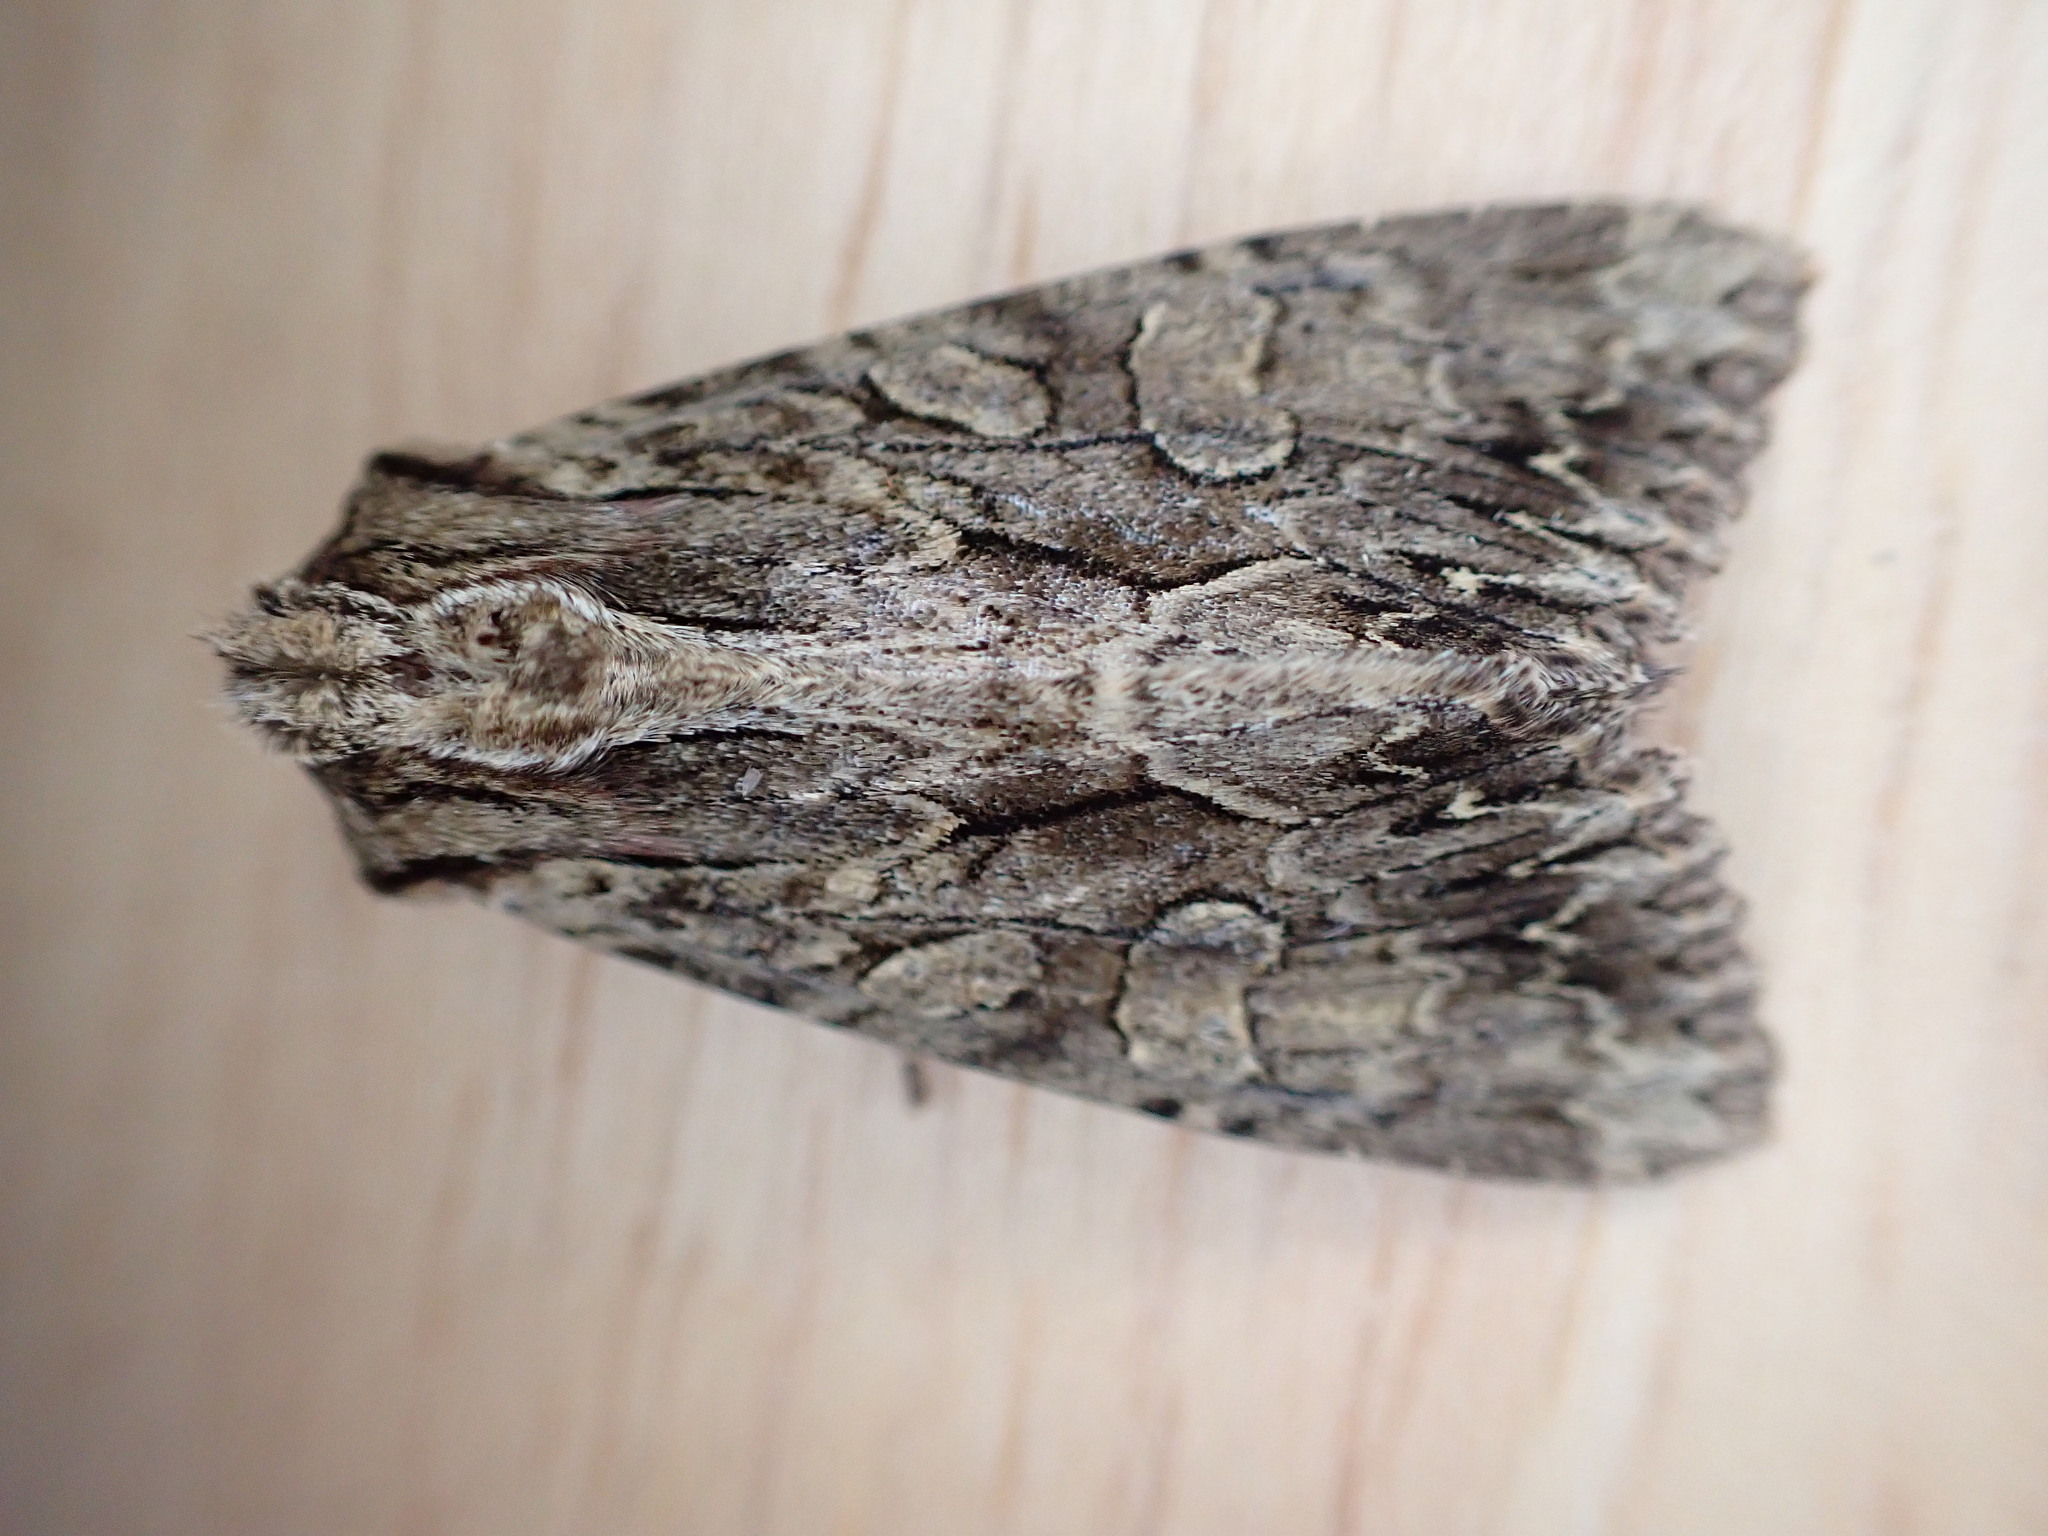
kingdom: Animalia
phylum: Arthropoda
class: Insecta
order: Lepidoptera
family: Noctuidae
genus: Apamea
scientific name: Apamea monoglypha
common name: Dark arches
